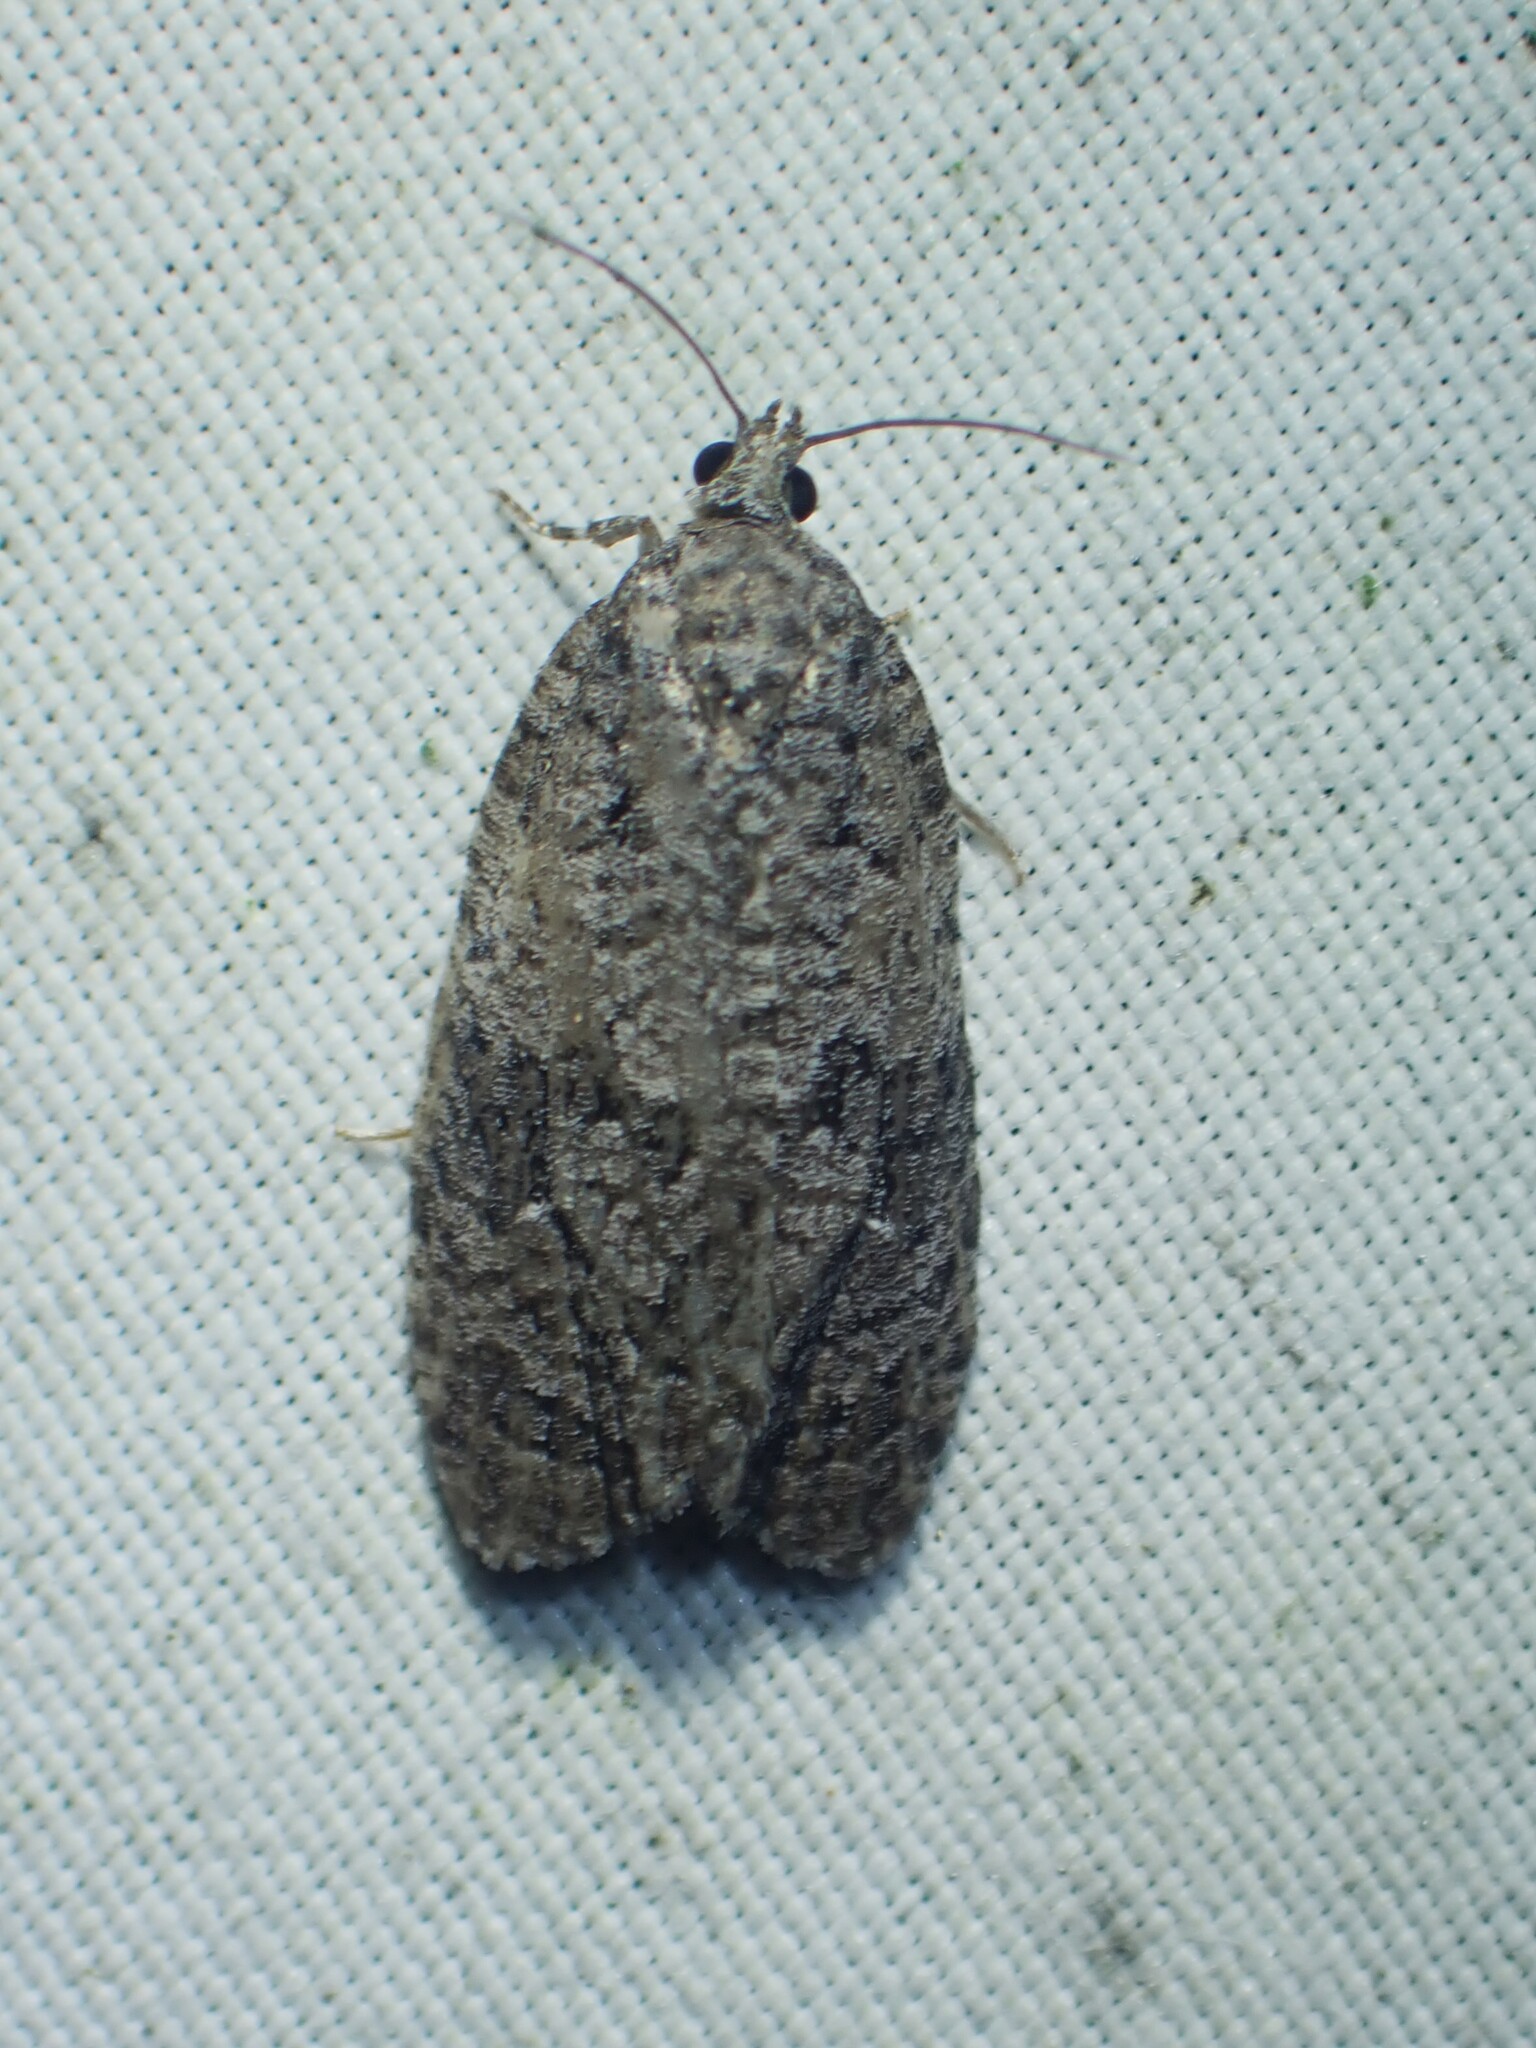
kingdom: Animalia
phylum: Arthropoda
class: Insecta
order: Lepidoptera
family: Tortricidae
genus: Apotomis
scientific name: Apotomis removana
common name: Green aspen leafroller
